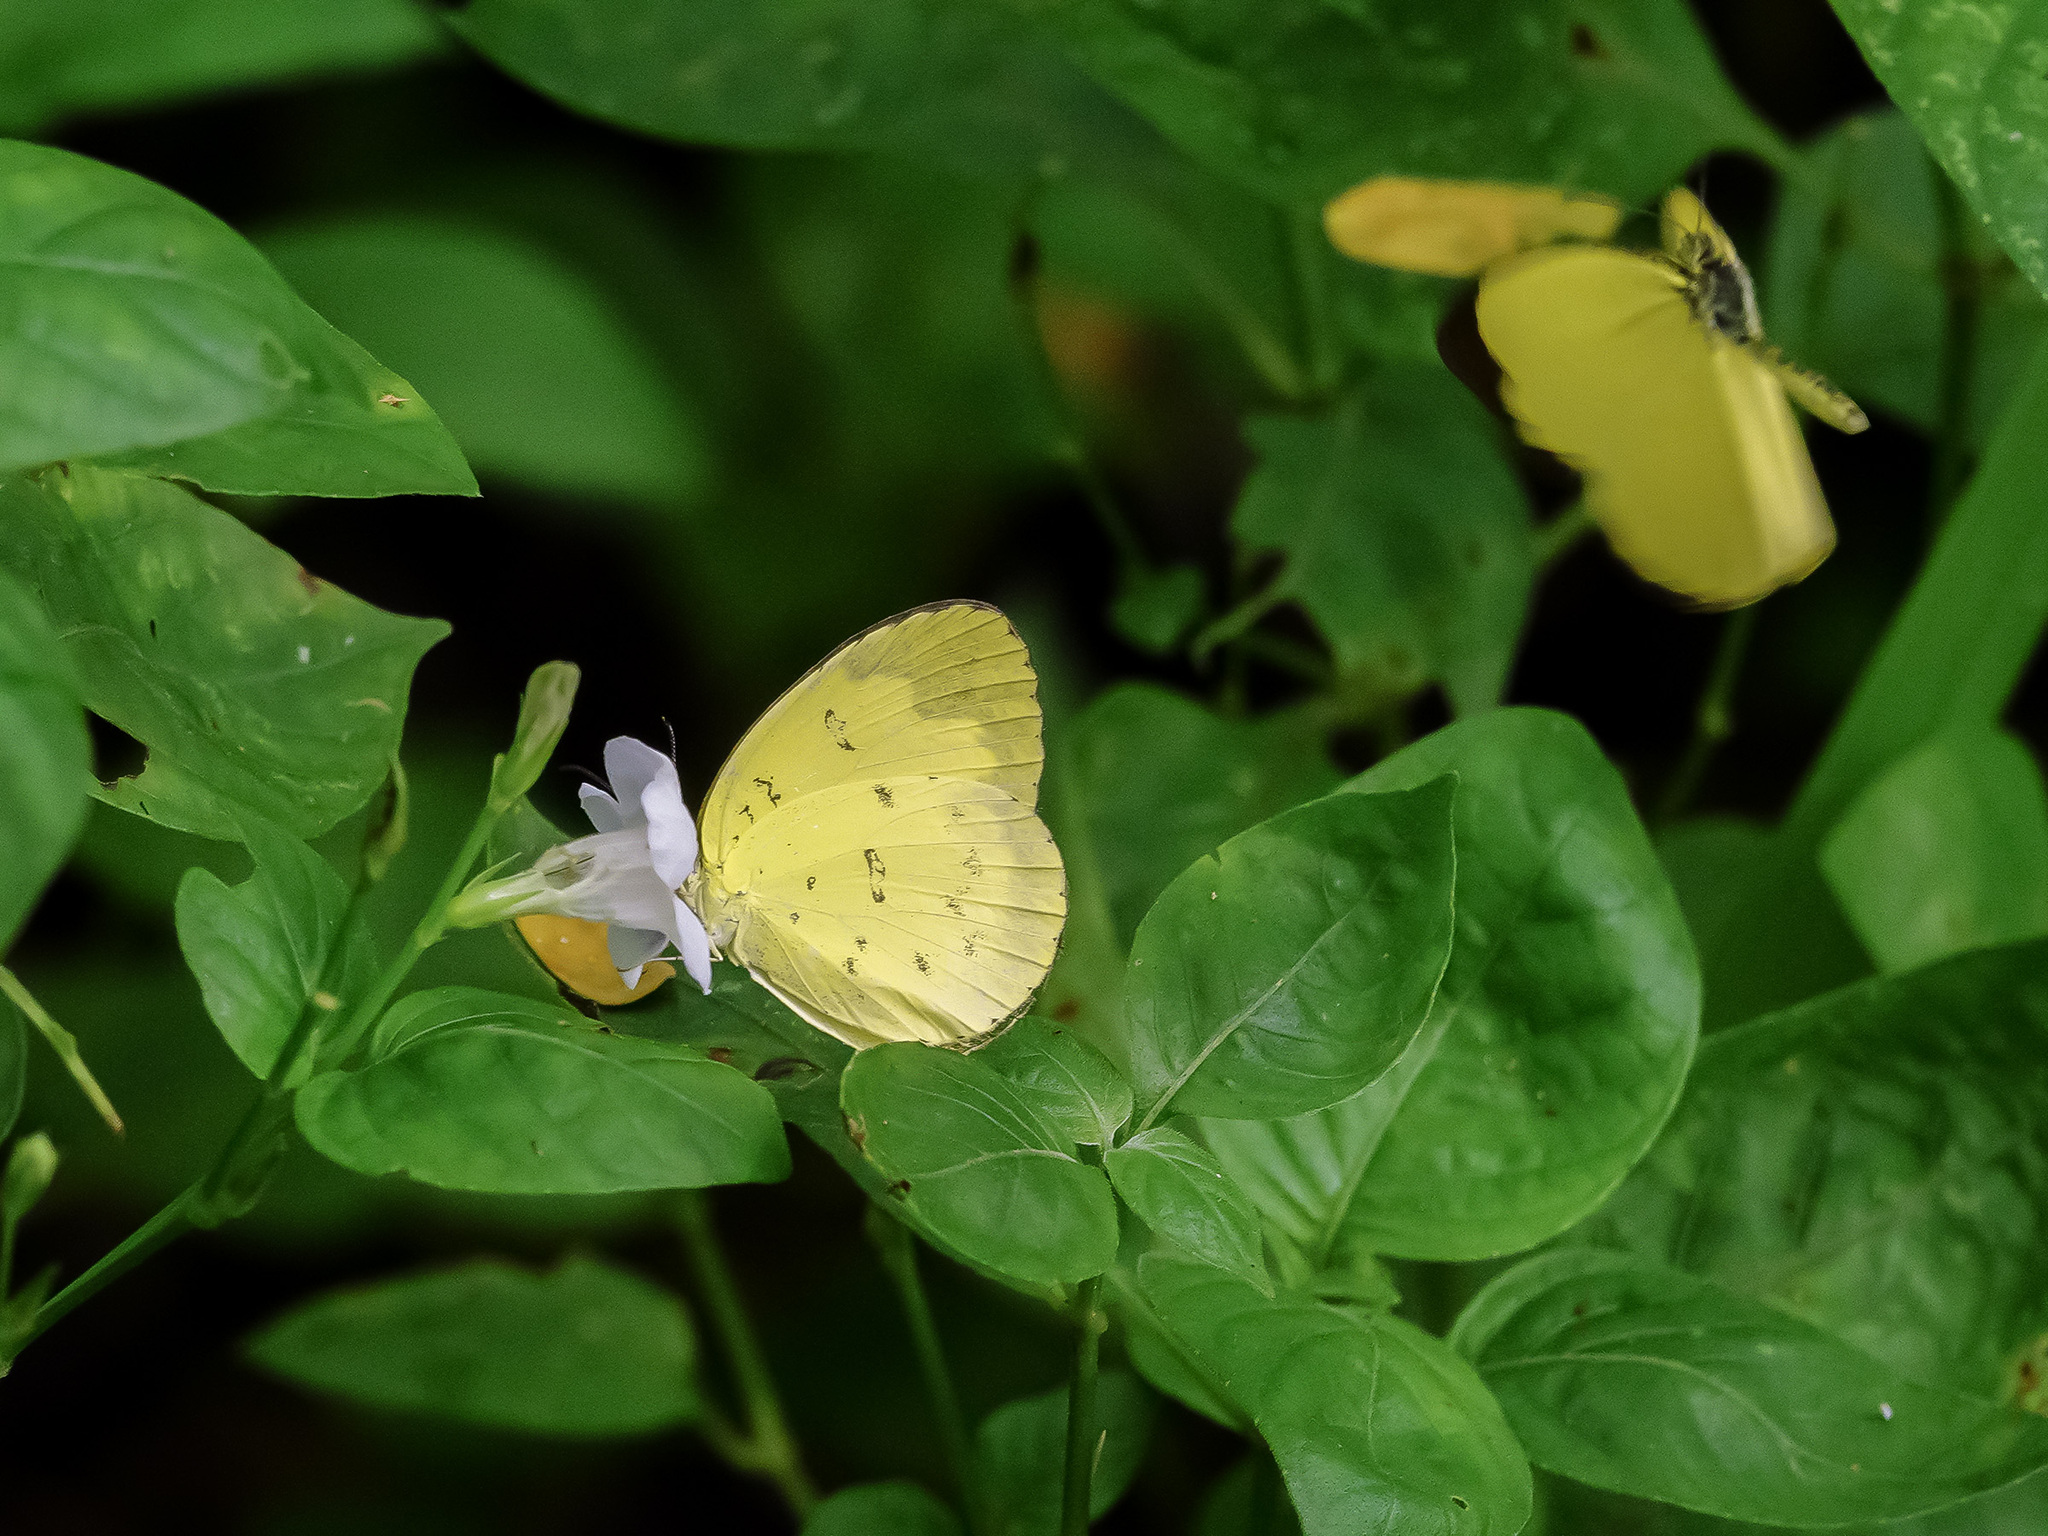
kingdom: Animalia
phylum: Arthropoda
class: Insecta
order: Lepidoptera
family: Pieridae
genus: Eurema
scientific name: Eurema blanda
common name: Three-spot grass yellow
